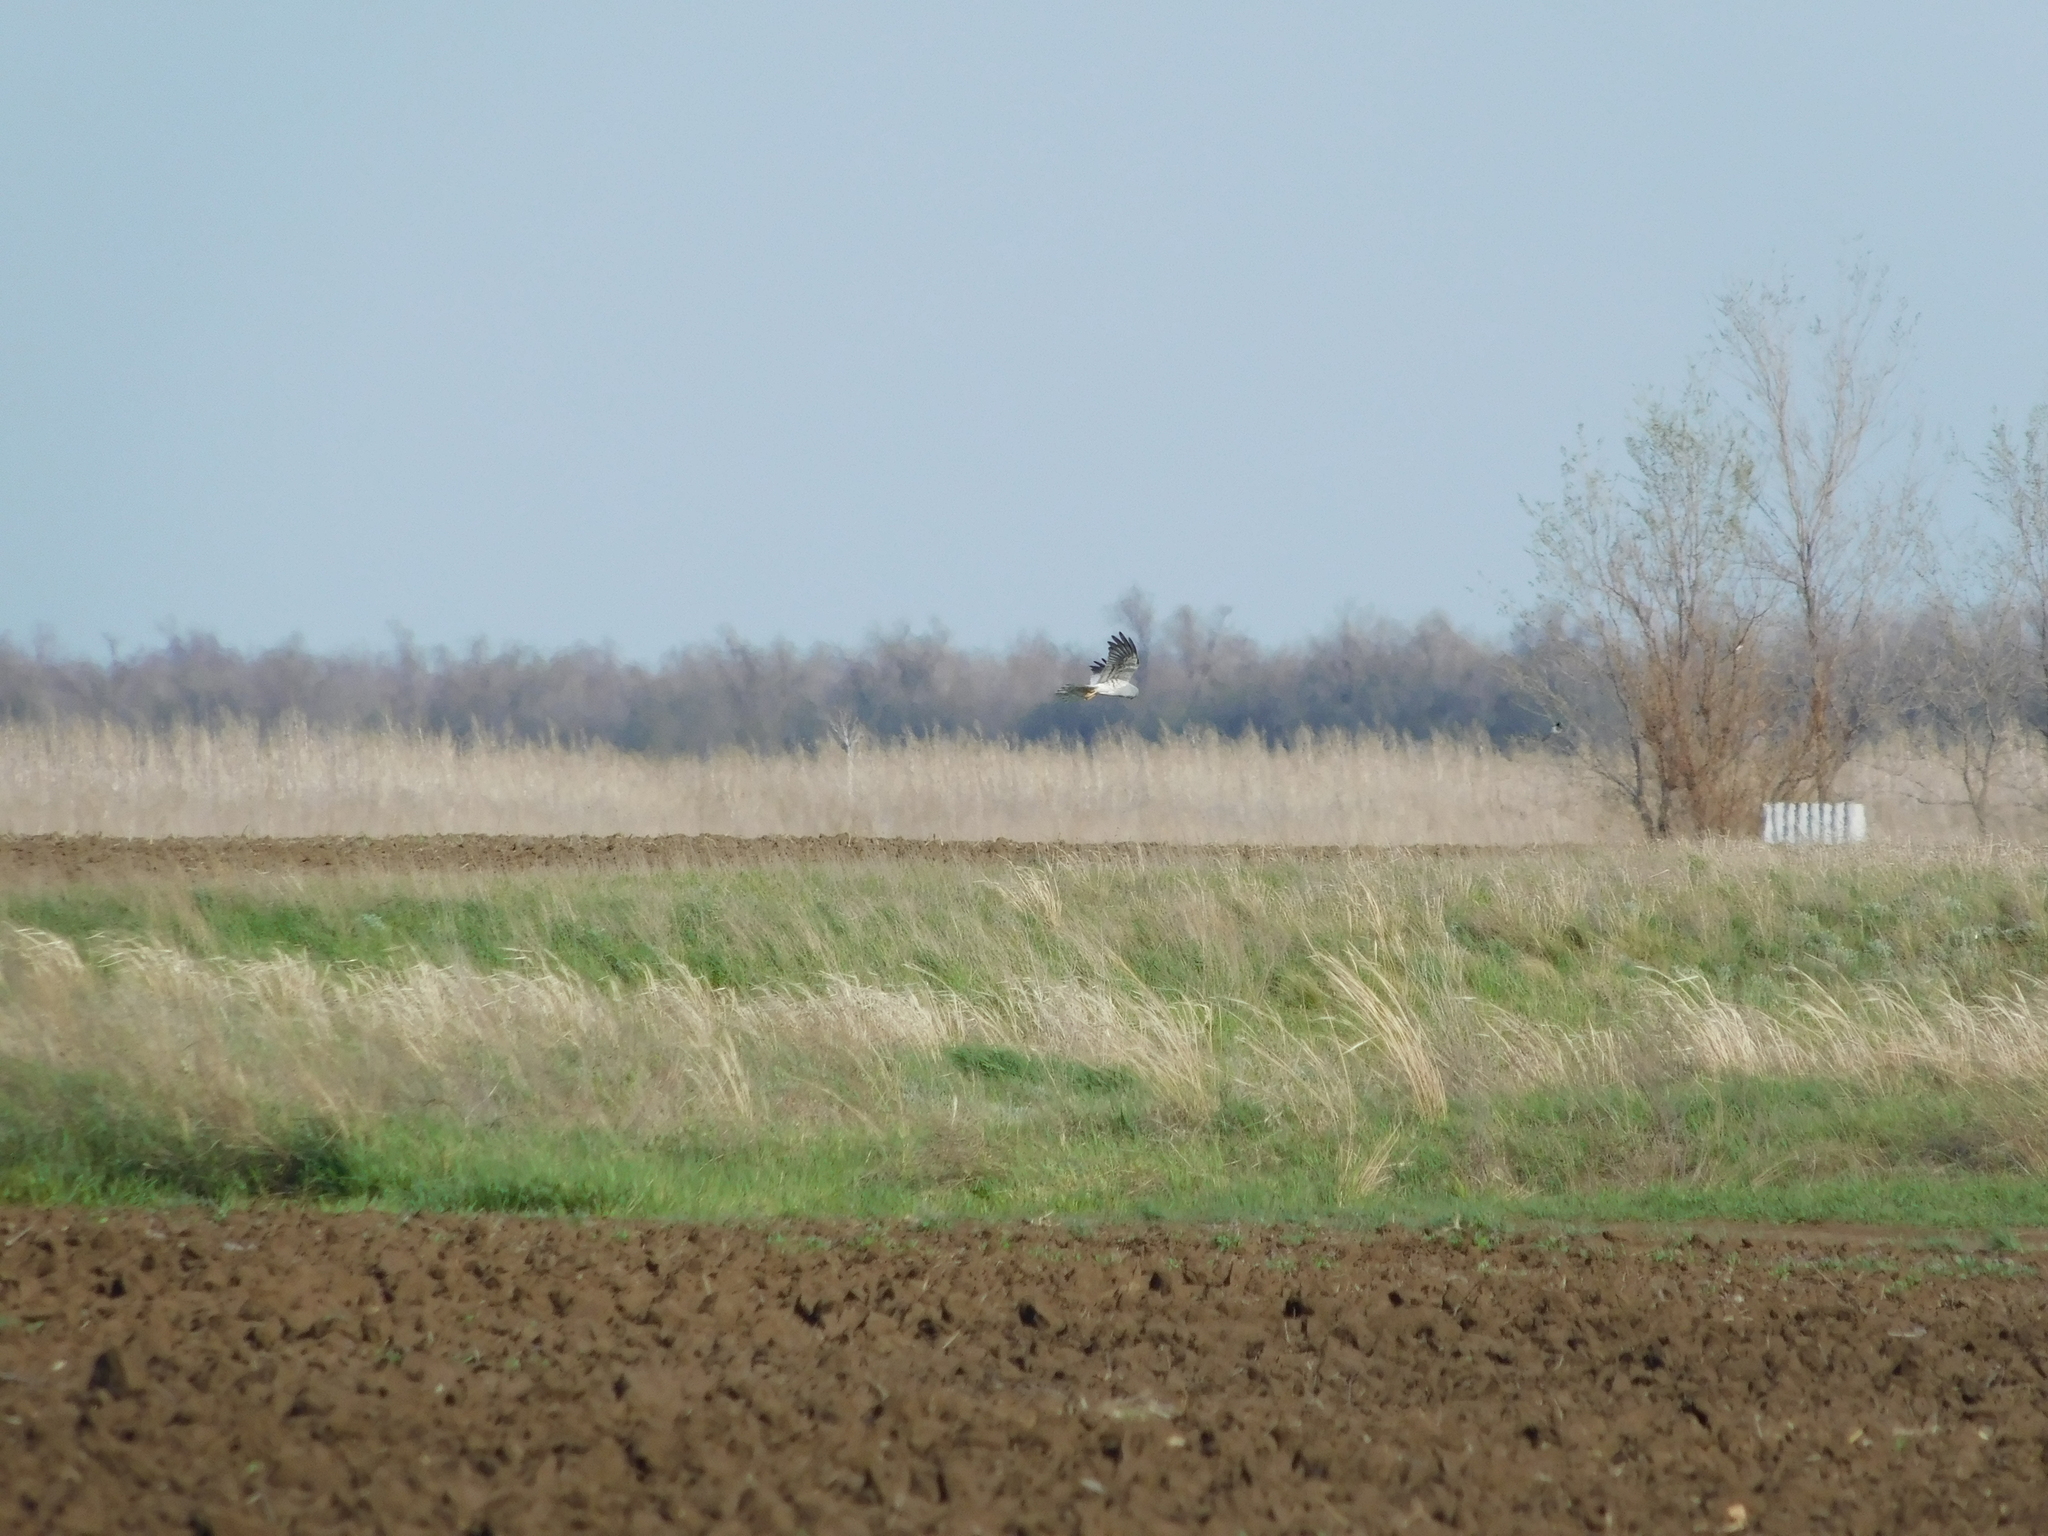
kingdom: Animalia
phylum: Chordata
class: Aves
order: Accipitriformes
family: Accipitridae
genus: Circus
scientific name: Circus pygargus
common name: Montagu's harrier
